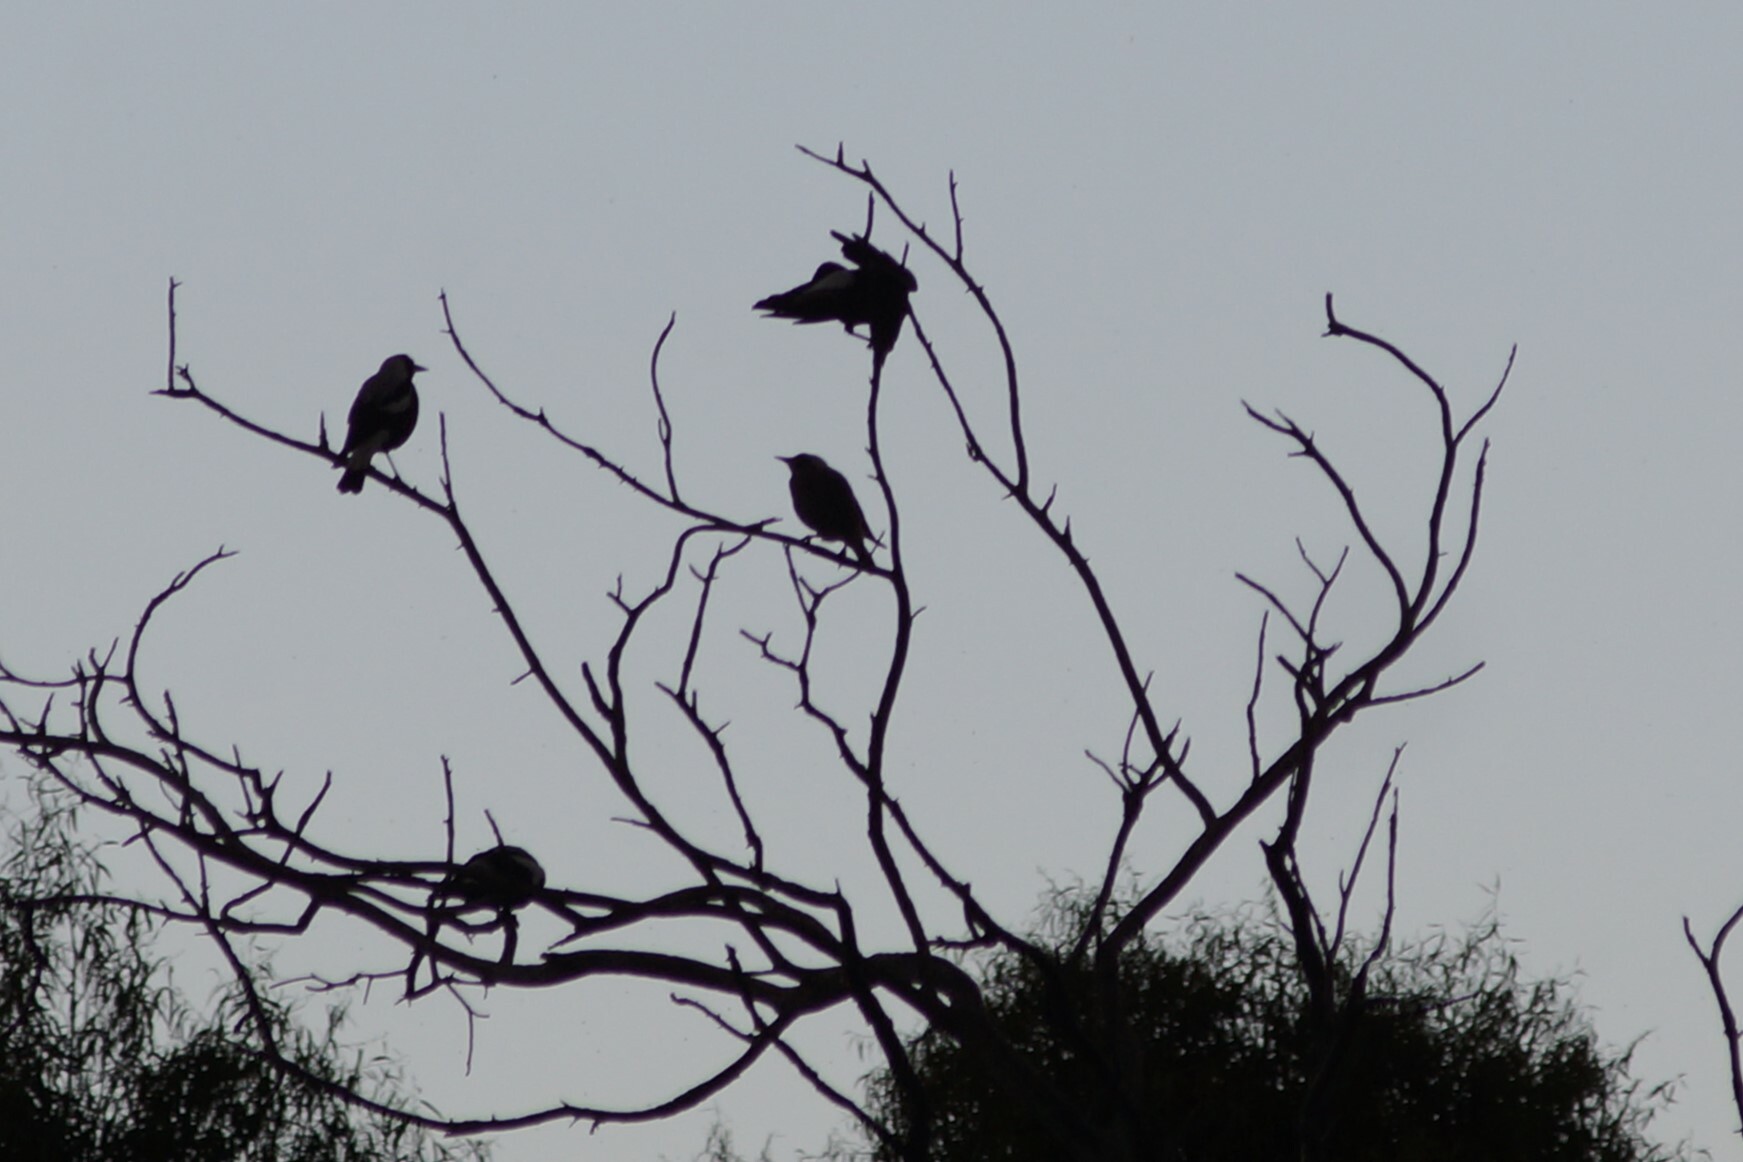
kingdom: Animalia
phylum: Chordata
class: Aves
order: Passeriformes
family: Cracticidae
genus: Gymnorhina
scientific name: Gymnorhina tibicen
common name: Australian magpie
